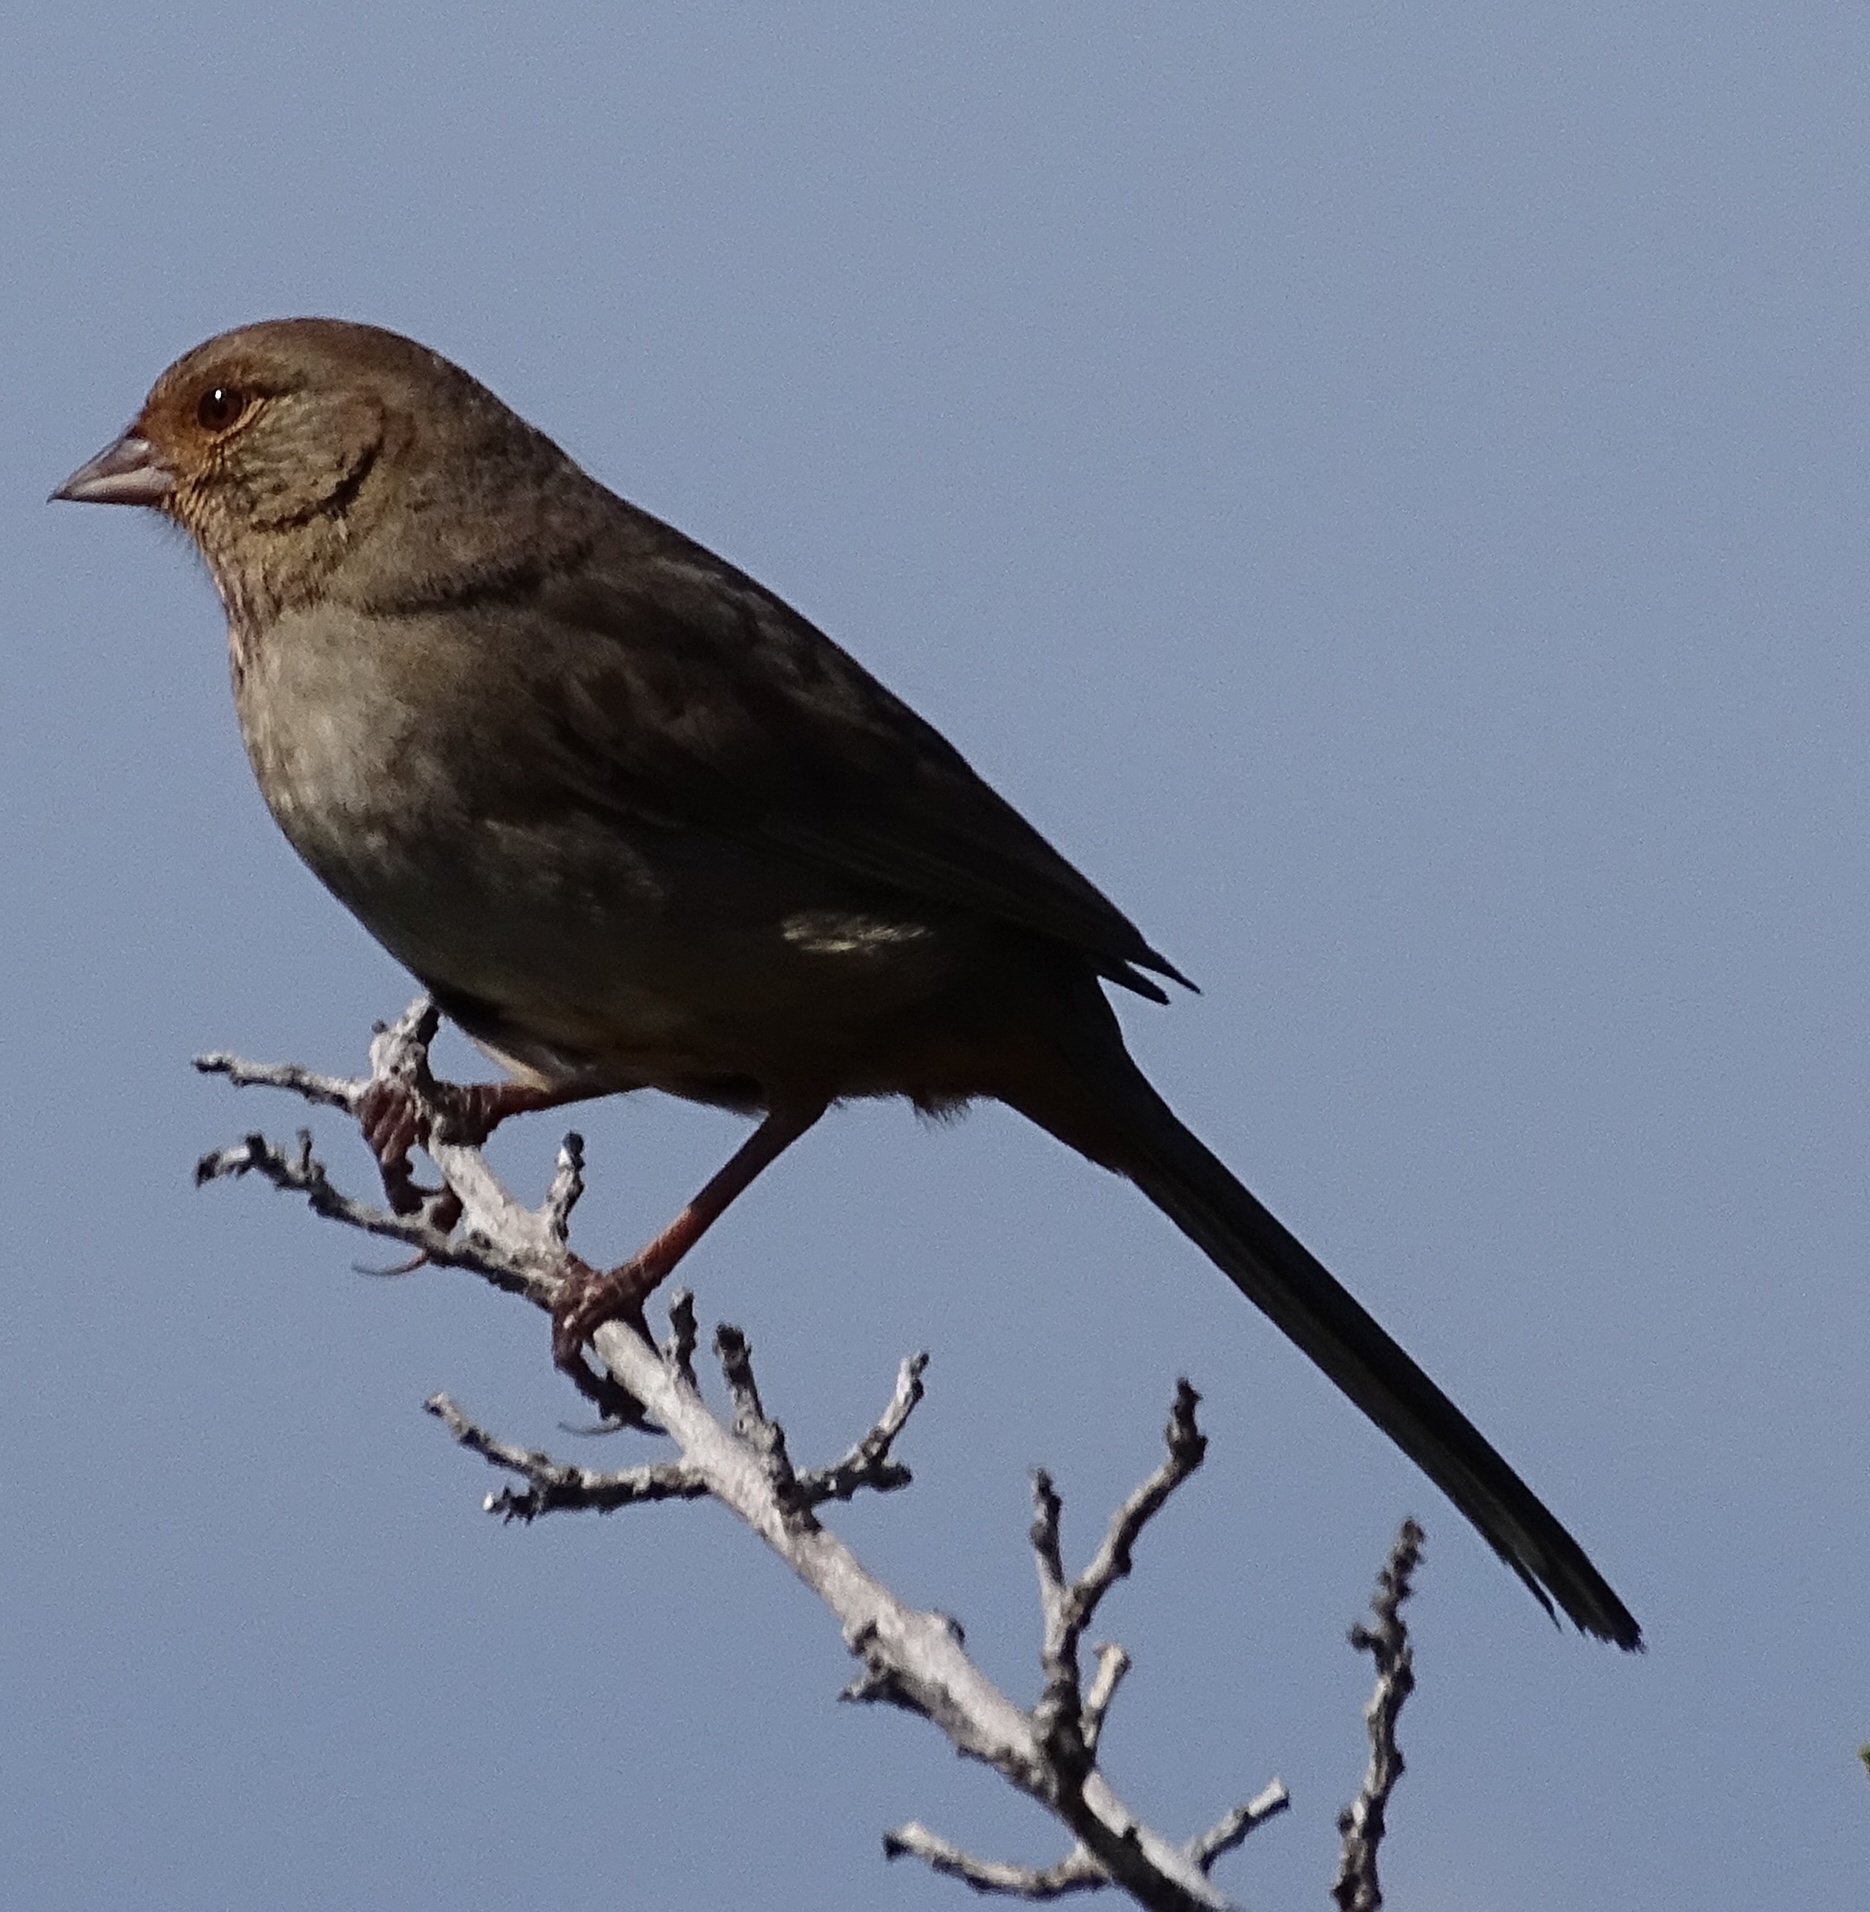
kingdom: Animalia
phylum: Chordata
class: Aves
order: Passeriformes
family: Passerellidae
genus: Melozone
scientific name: Melozone crissalis
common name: California towhee
